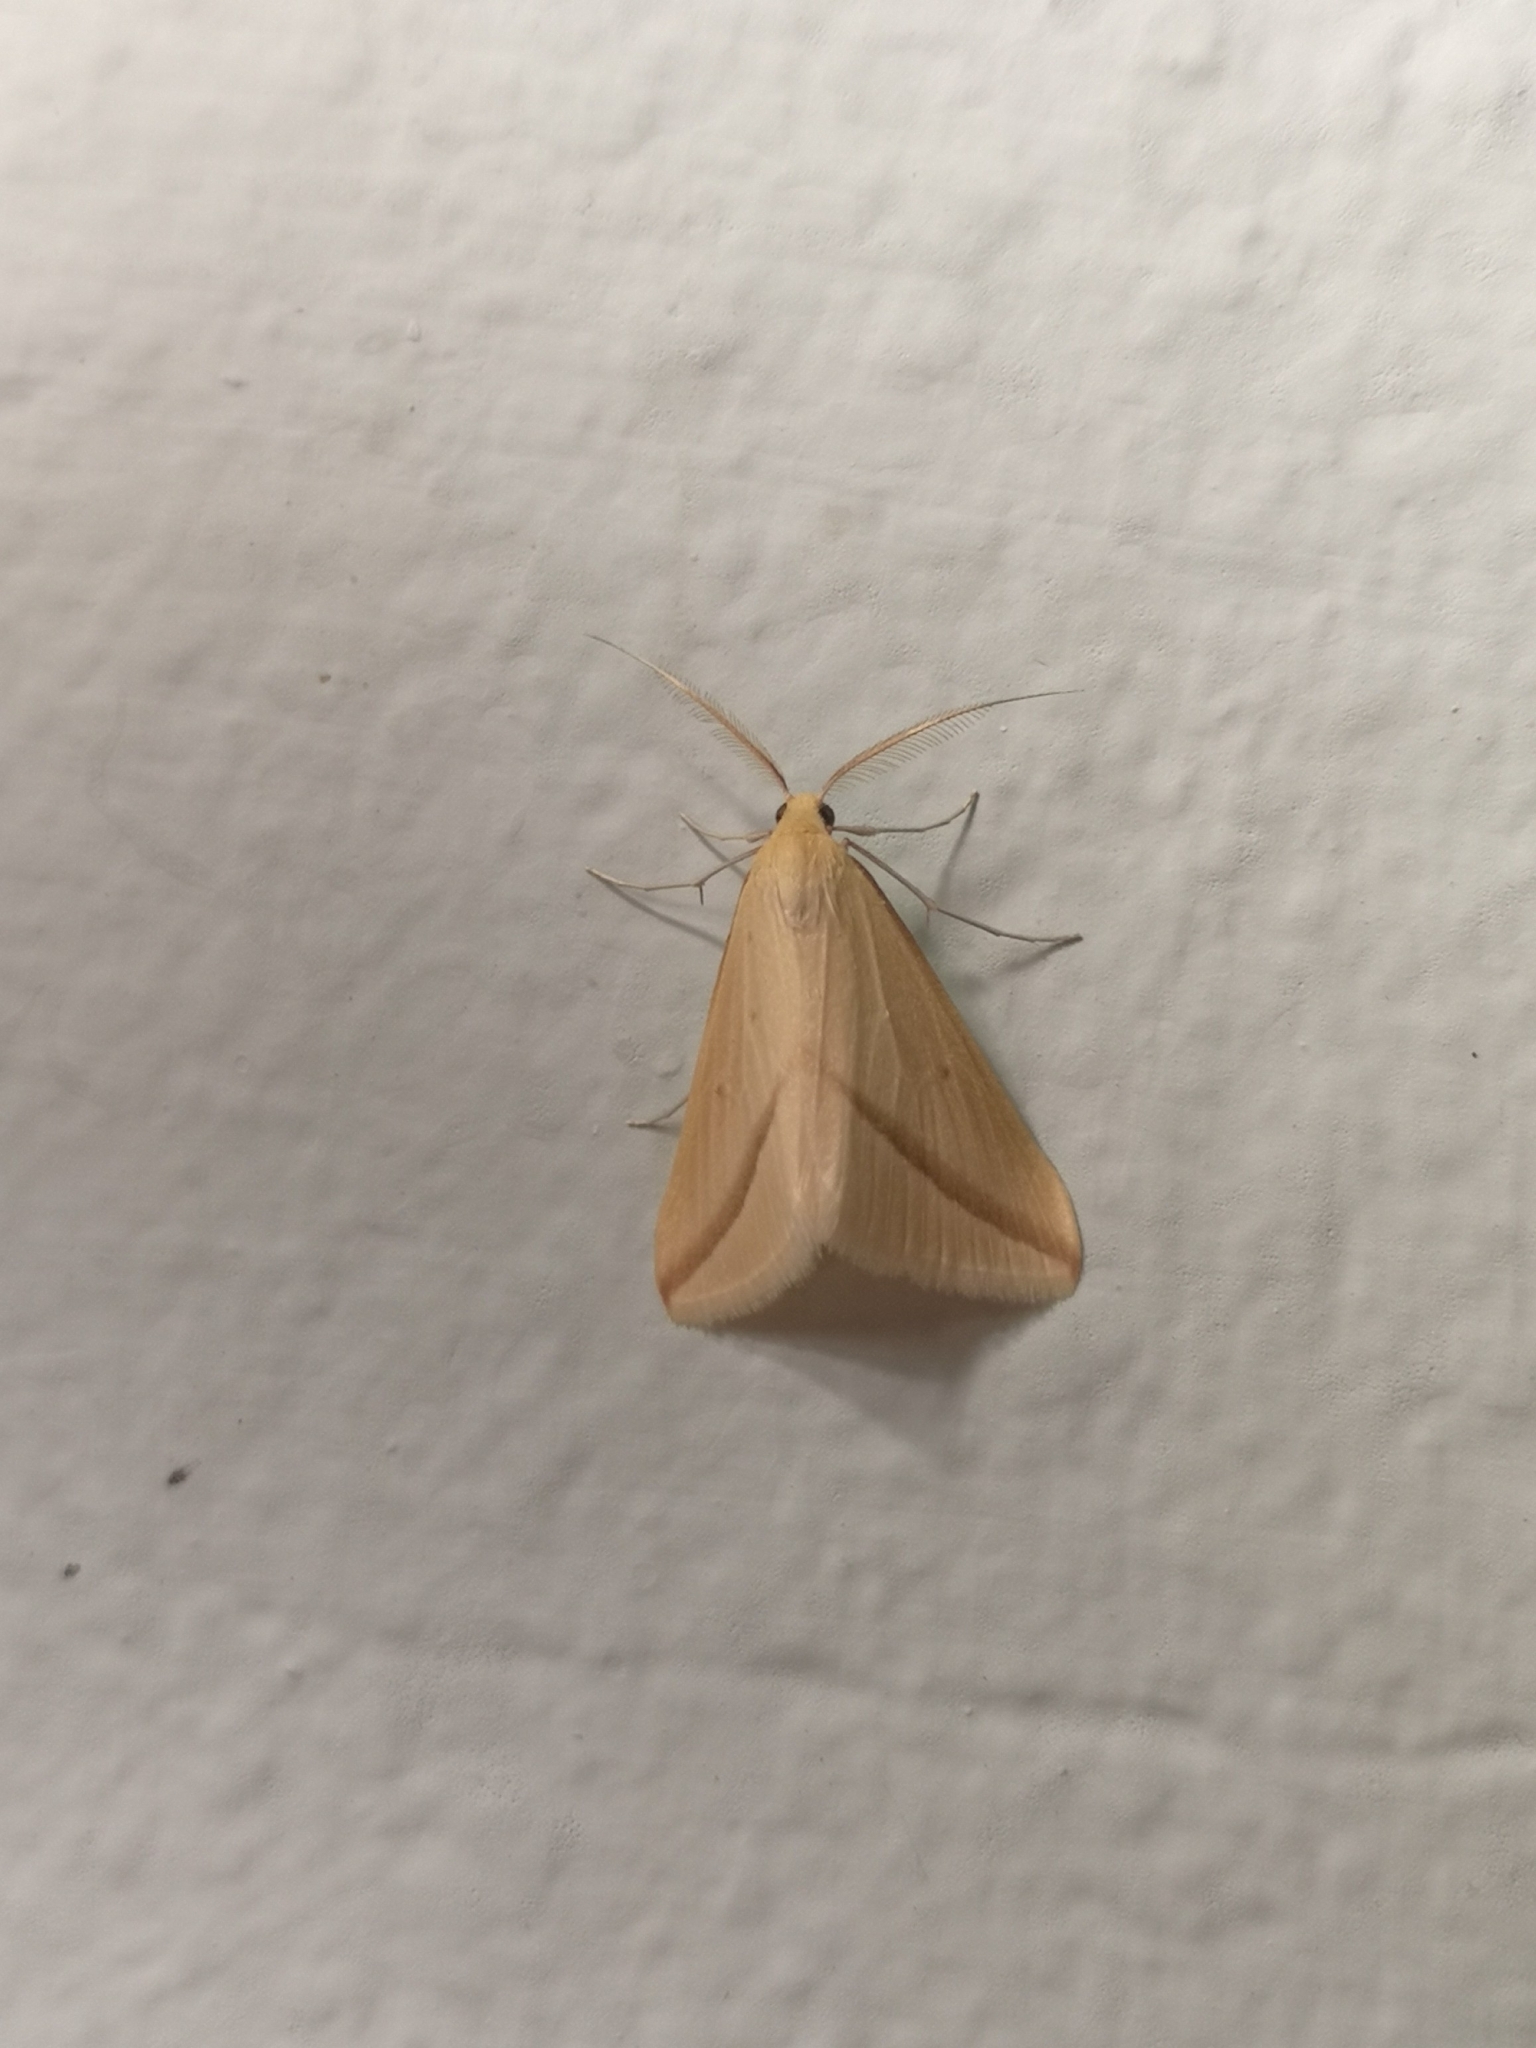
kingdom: Animalia
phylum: Arthropoda
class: Insecta
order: Lepidoptera
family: Geometridae
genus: Rhodometra
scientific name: Rhodometra sacraria
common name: Vestal
